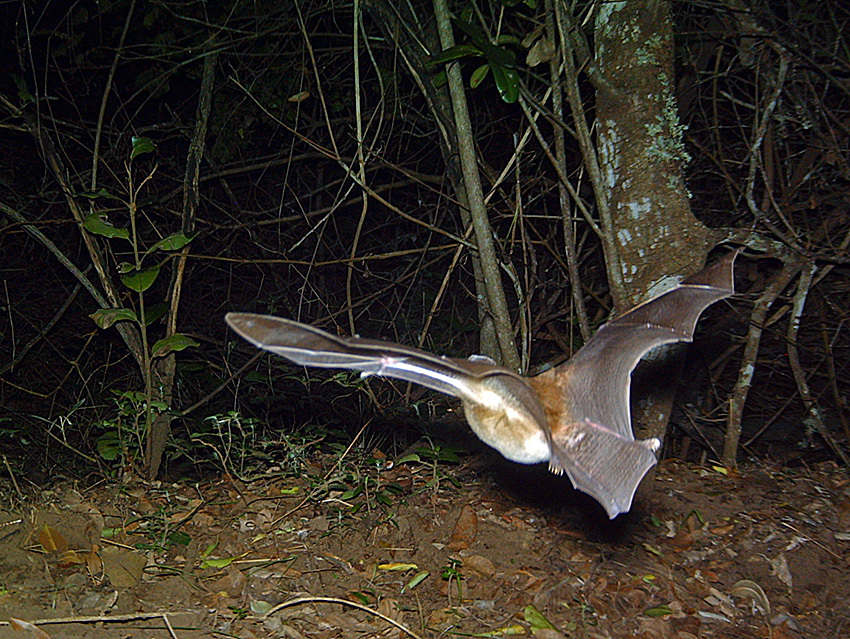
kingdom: Animalia
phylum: Chordata
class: Mammalia
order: Chiroptera
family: Nycteridae
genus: Nycteris
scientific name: Nycteris thebaica
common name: Egyptian slit-faced bat
